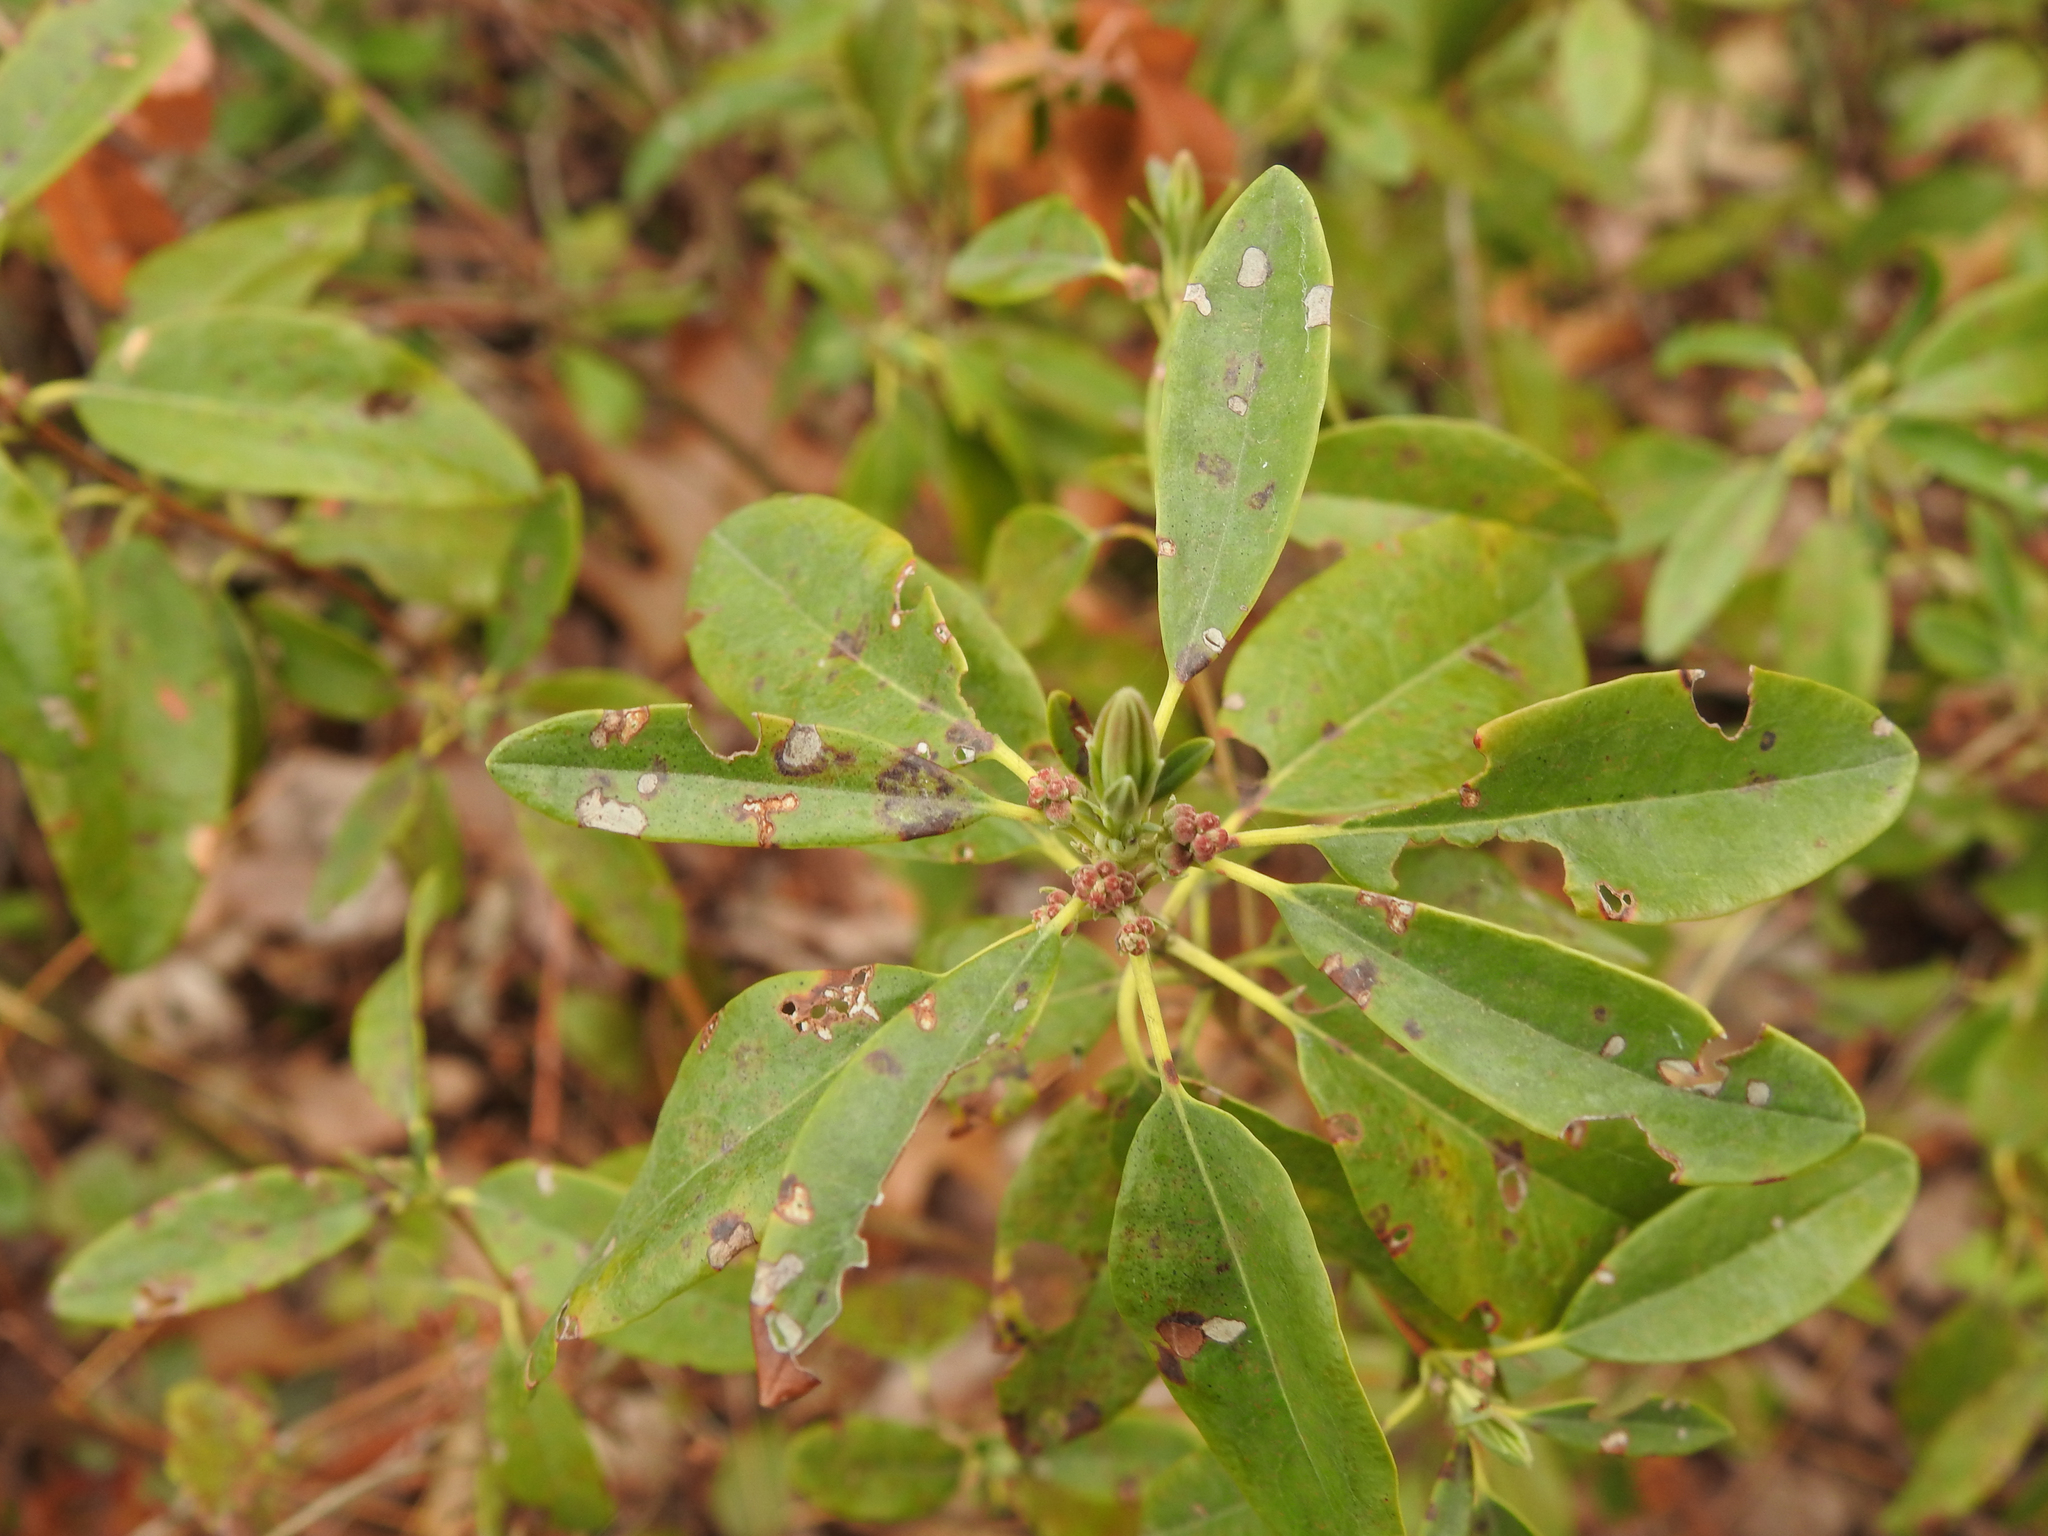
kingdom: Plantae
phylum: Tracheophyta
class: Magnoliopsida
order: Ericales
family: Ericaceae
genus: Kalmia
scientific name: Kalmia angustifolia
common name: Sheep-laurel
